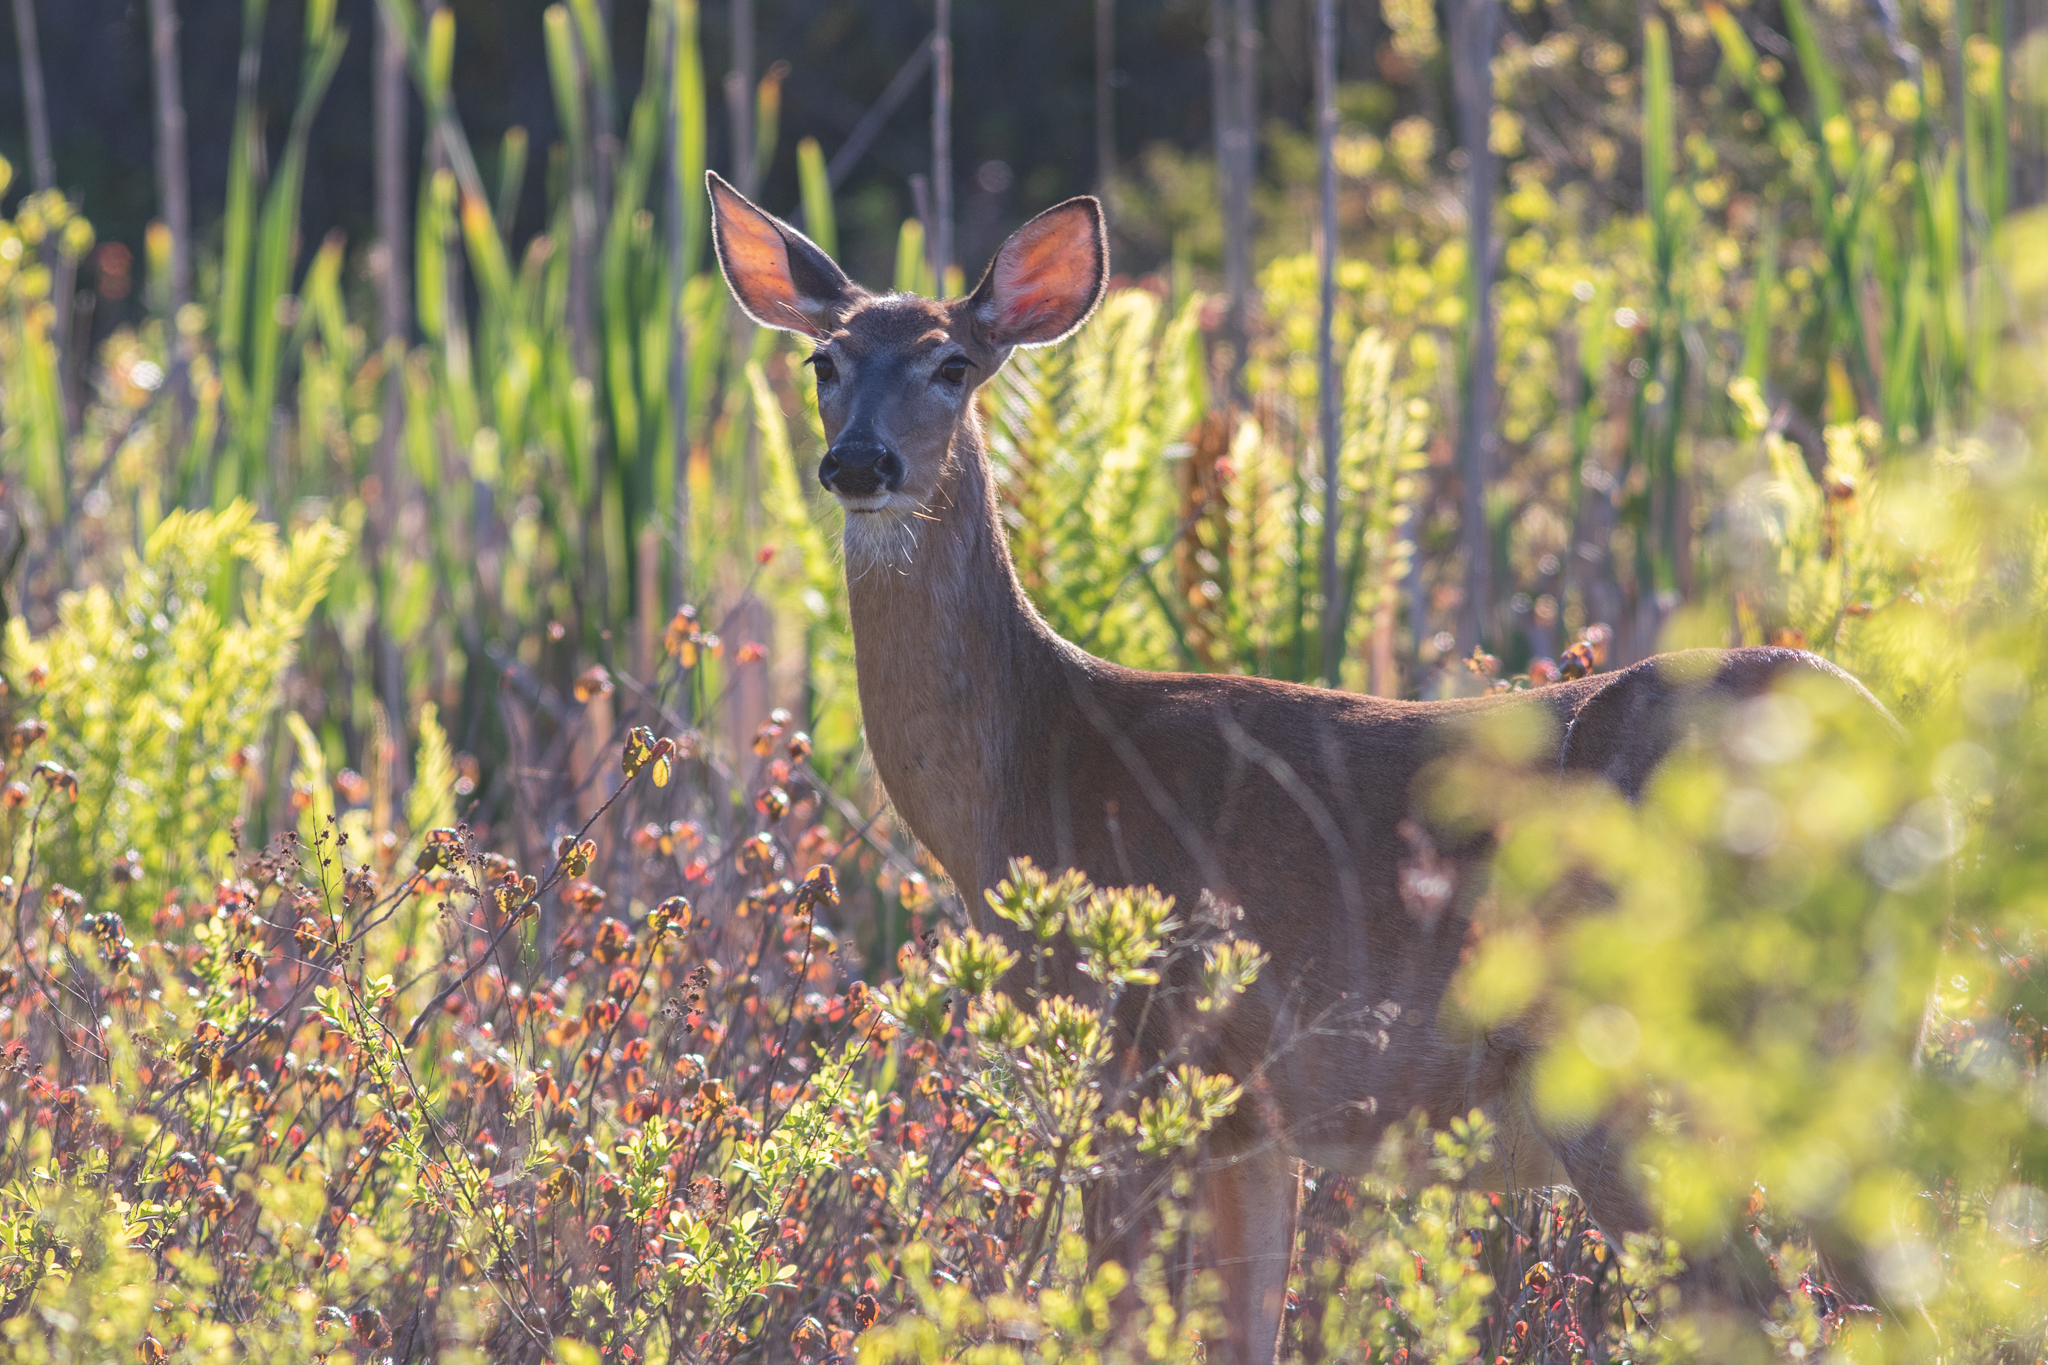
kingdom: Animalia
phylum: Chordata
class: Mammalia
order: Artiodactyla
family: Cervidae
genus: Odocoileus
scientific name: Odocoileus virginianus
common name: White-tailed deer
